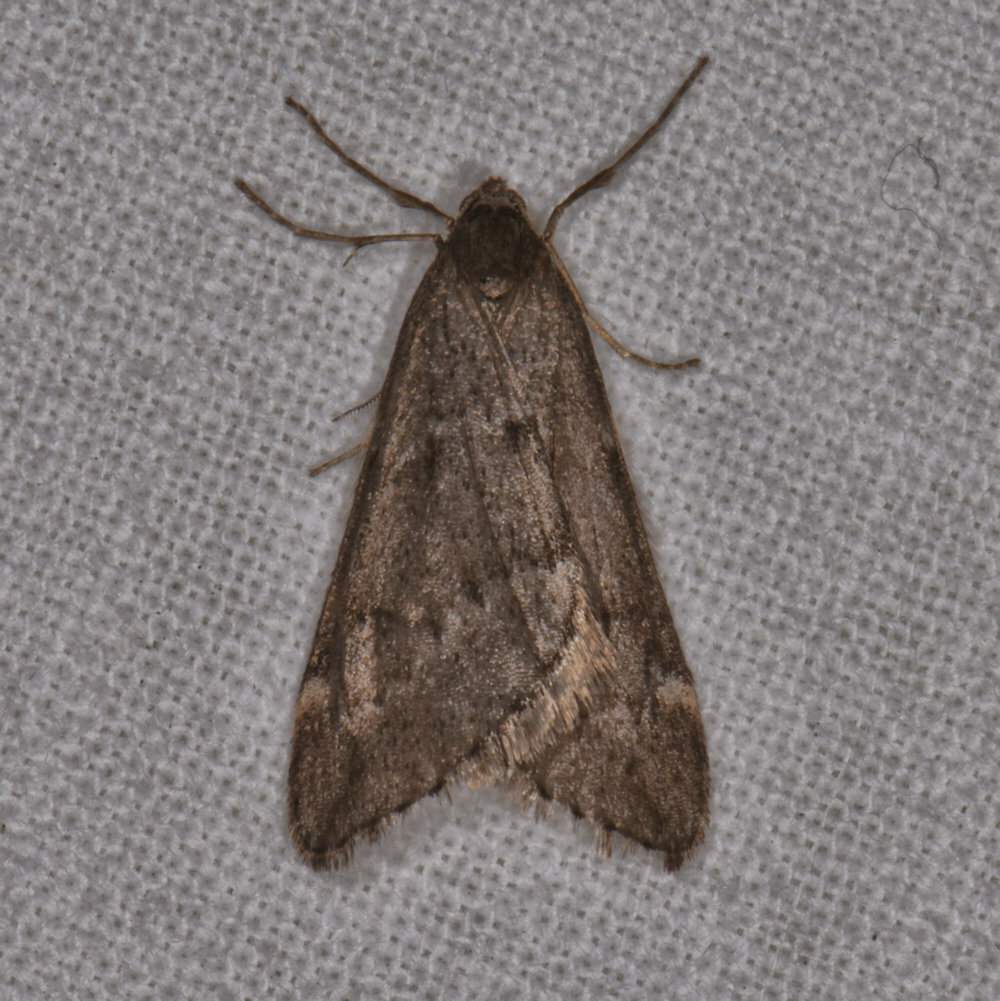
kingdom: Animalia
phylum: Arthropoda
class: Insecta
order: Lepidoptera
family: Geometridae
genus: Alsophila
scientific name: Alsophila pometaria
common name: Fall cankerworm
